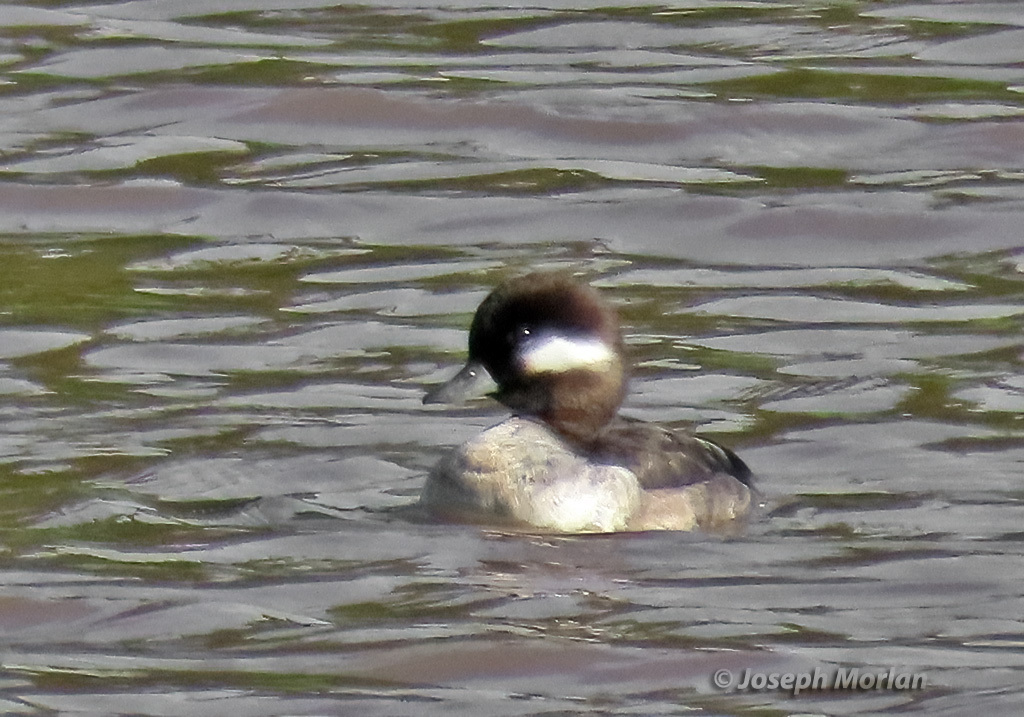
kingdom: Animalia
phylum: Chordata
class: Aves
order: Anseriformes
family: Anatidae
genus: Bucephala
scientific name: Bucephala albeola
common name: Bufflehead
